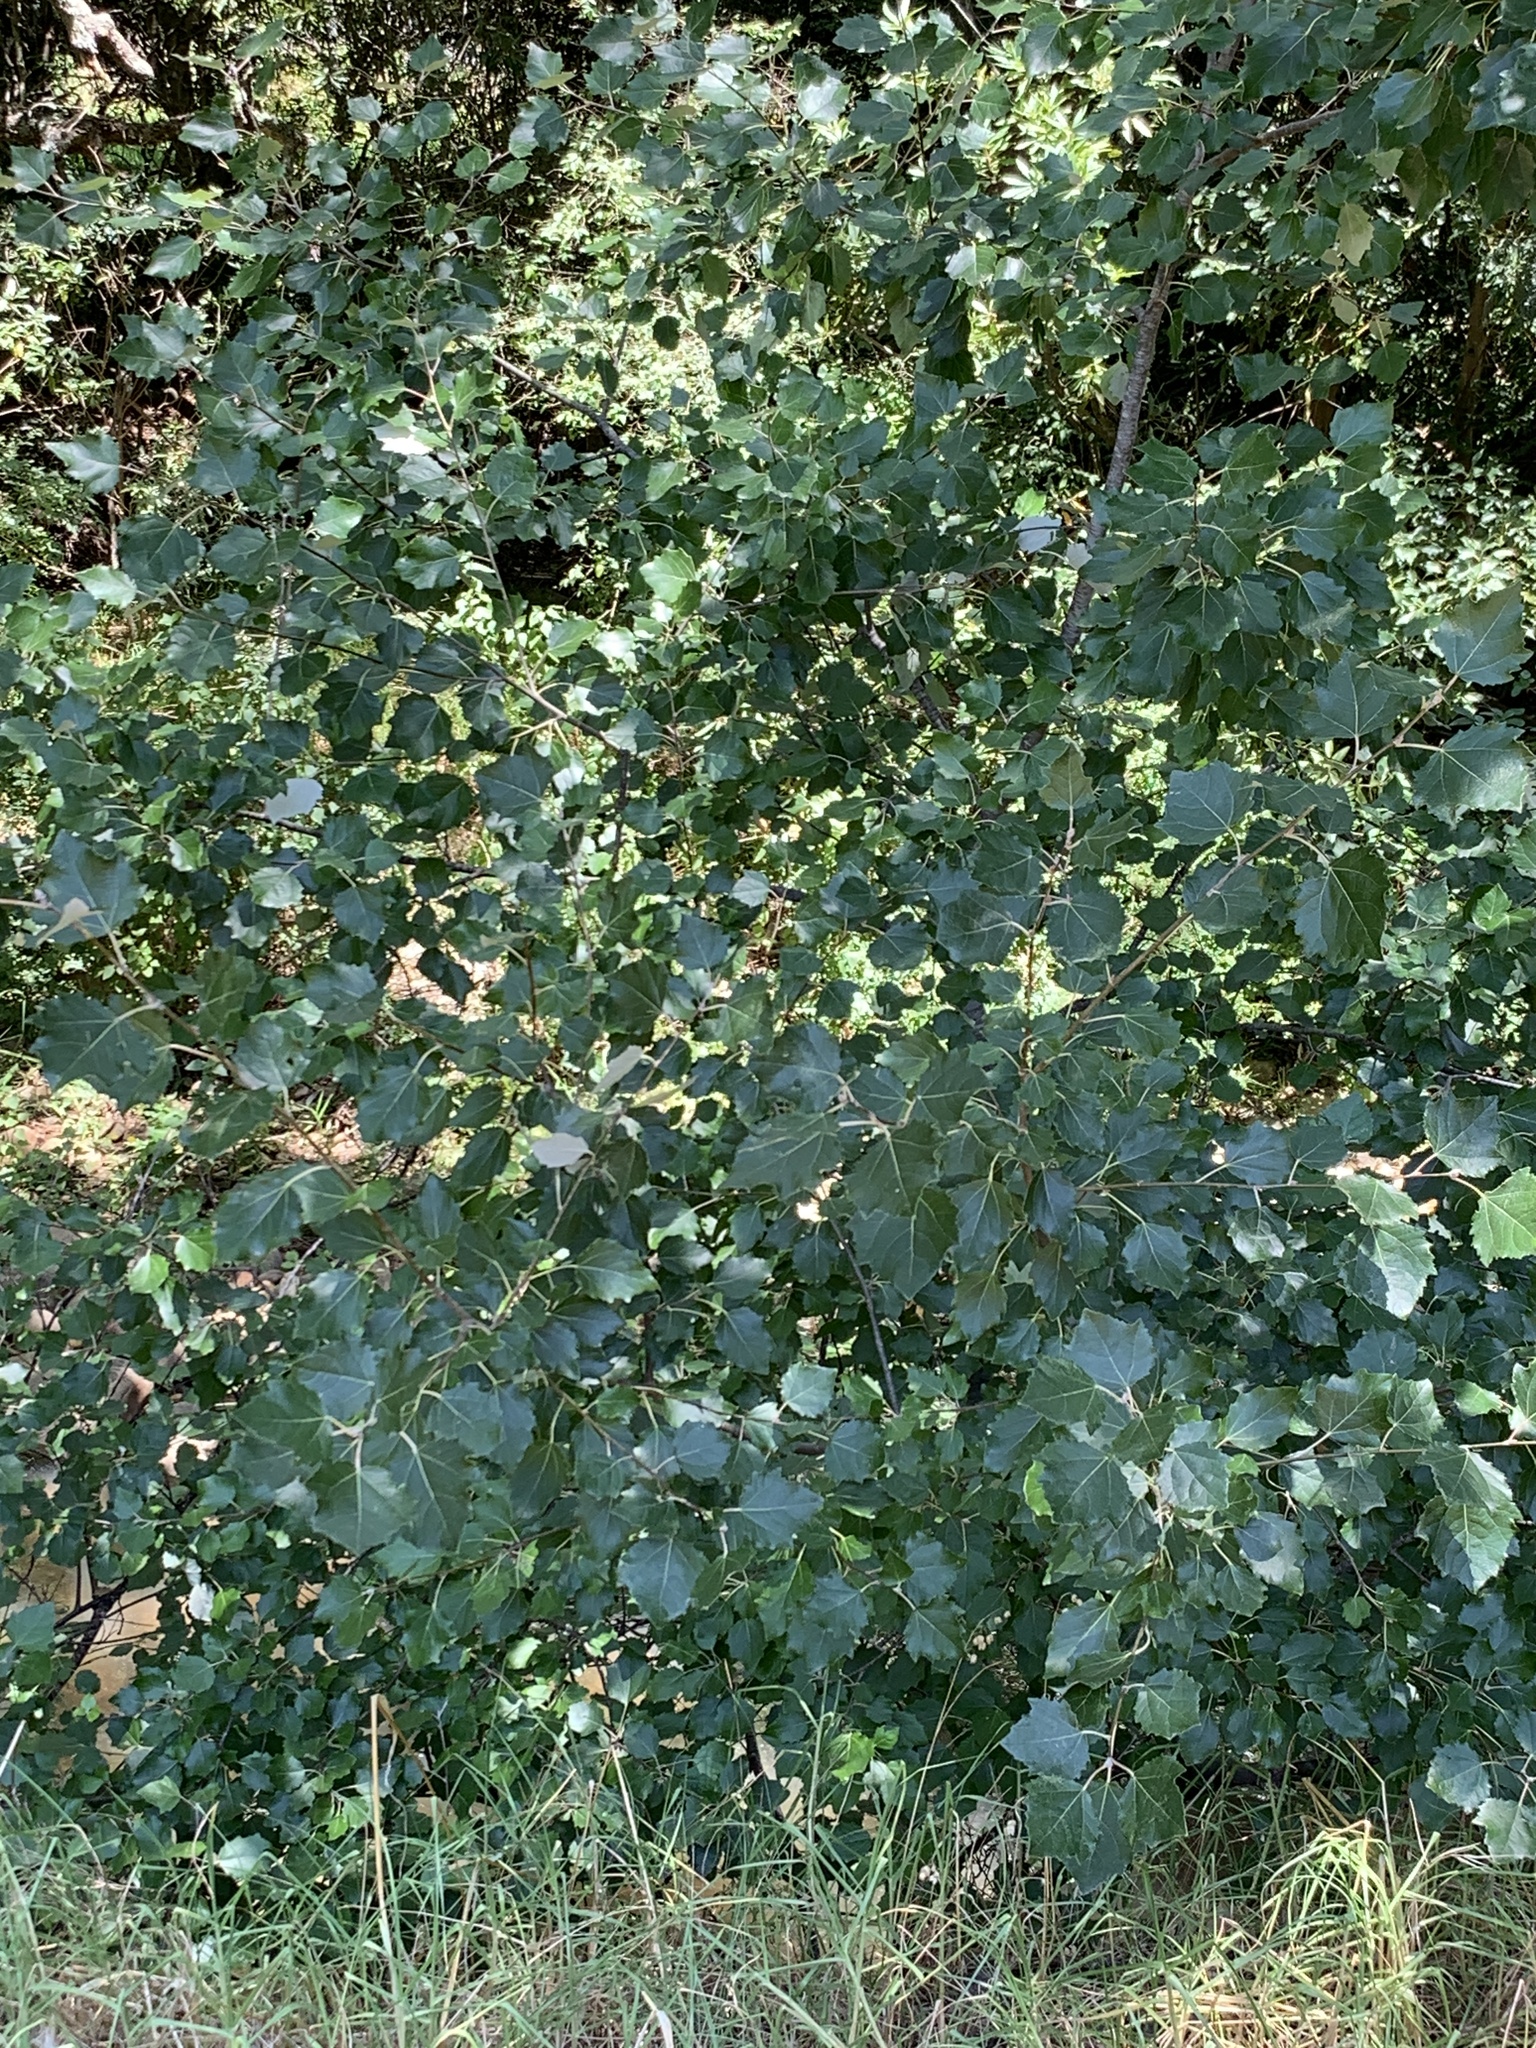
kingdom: Plantae
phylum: Tracheophyta
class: Magnoliopsida
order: Malpighiales
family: Salicaceae
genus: Populus
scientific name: Populus canescens
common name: Gray poplar
